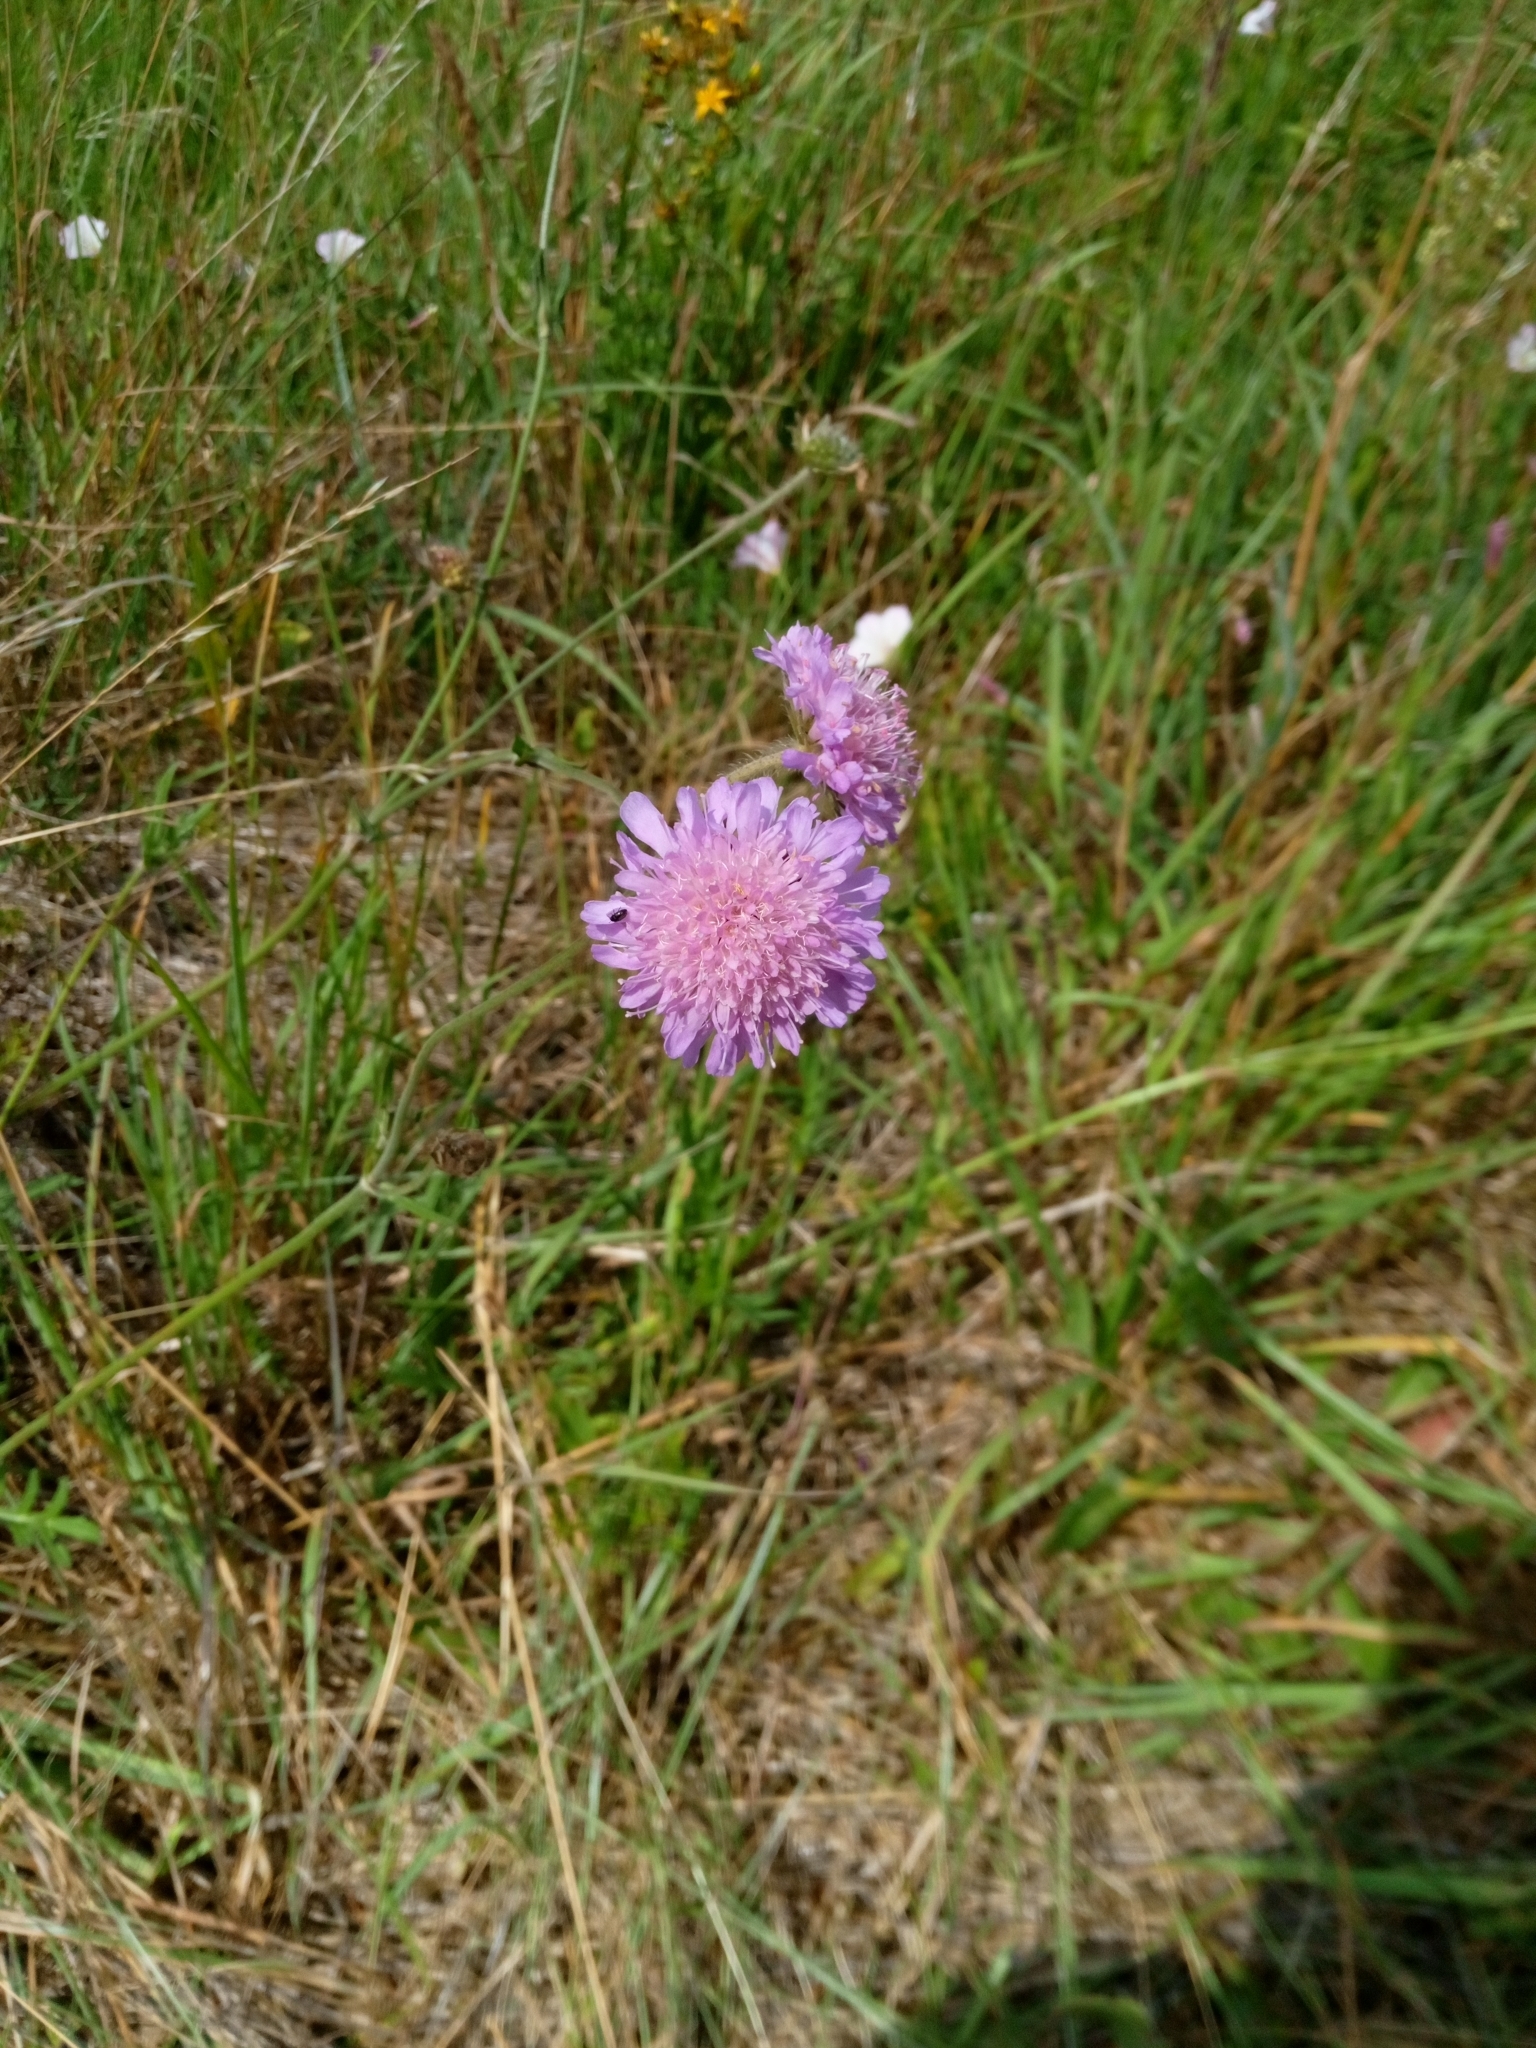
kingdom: Plantae
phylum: Tracheophyta
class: Magnoliopsida
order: Dipsacales
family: Caprifoliaceae
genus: Knautia
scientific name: Knautia arvensis
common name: Field scabiosa
